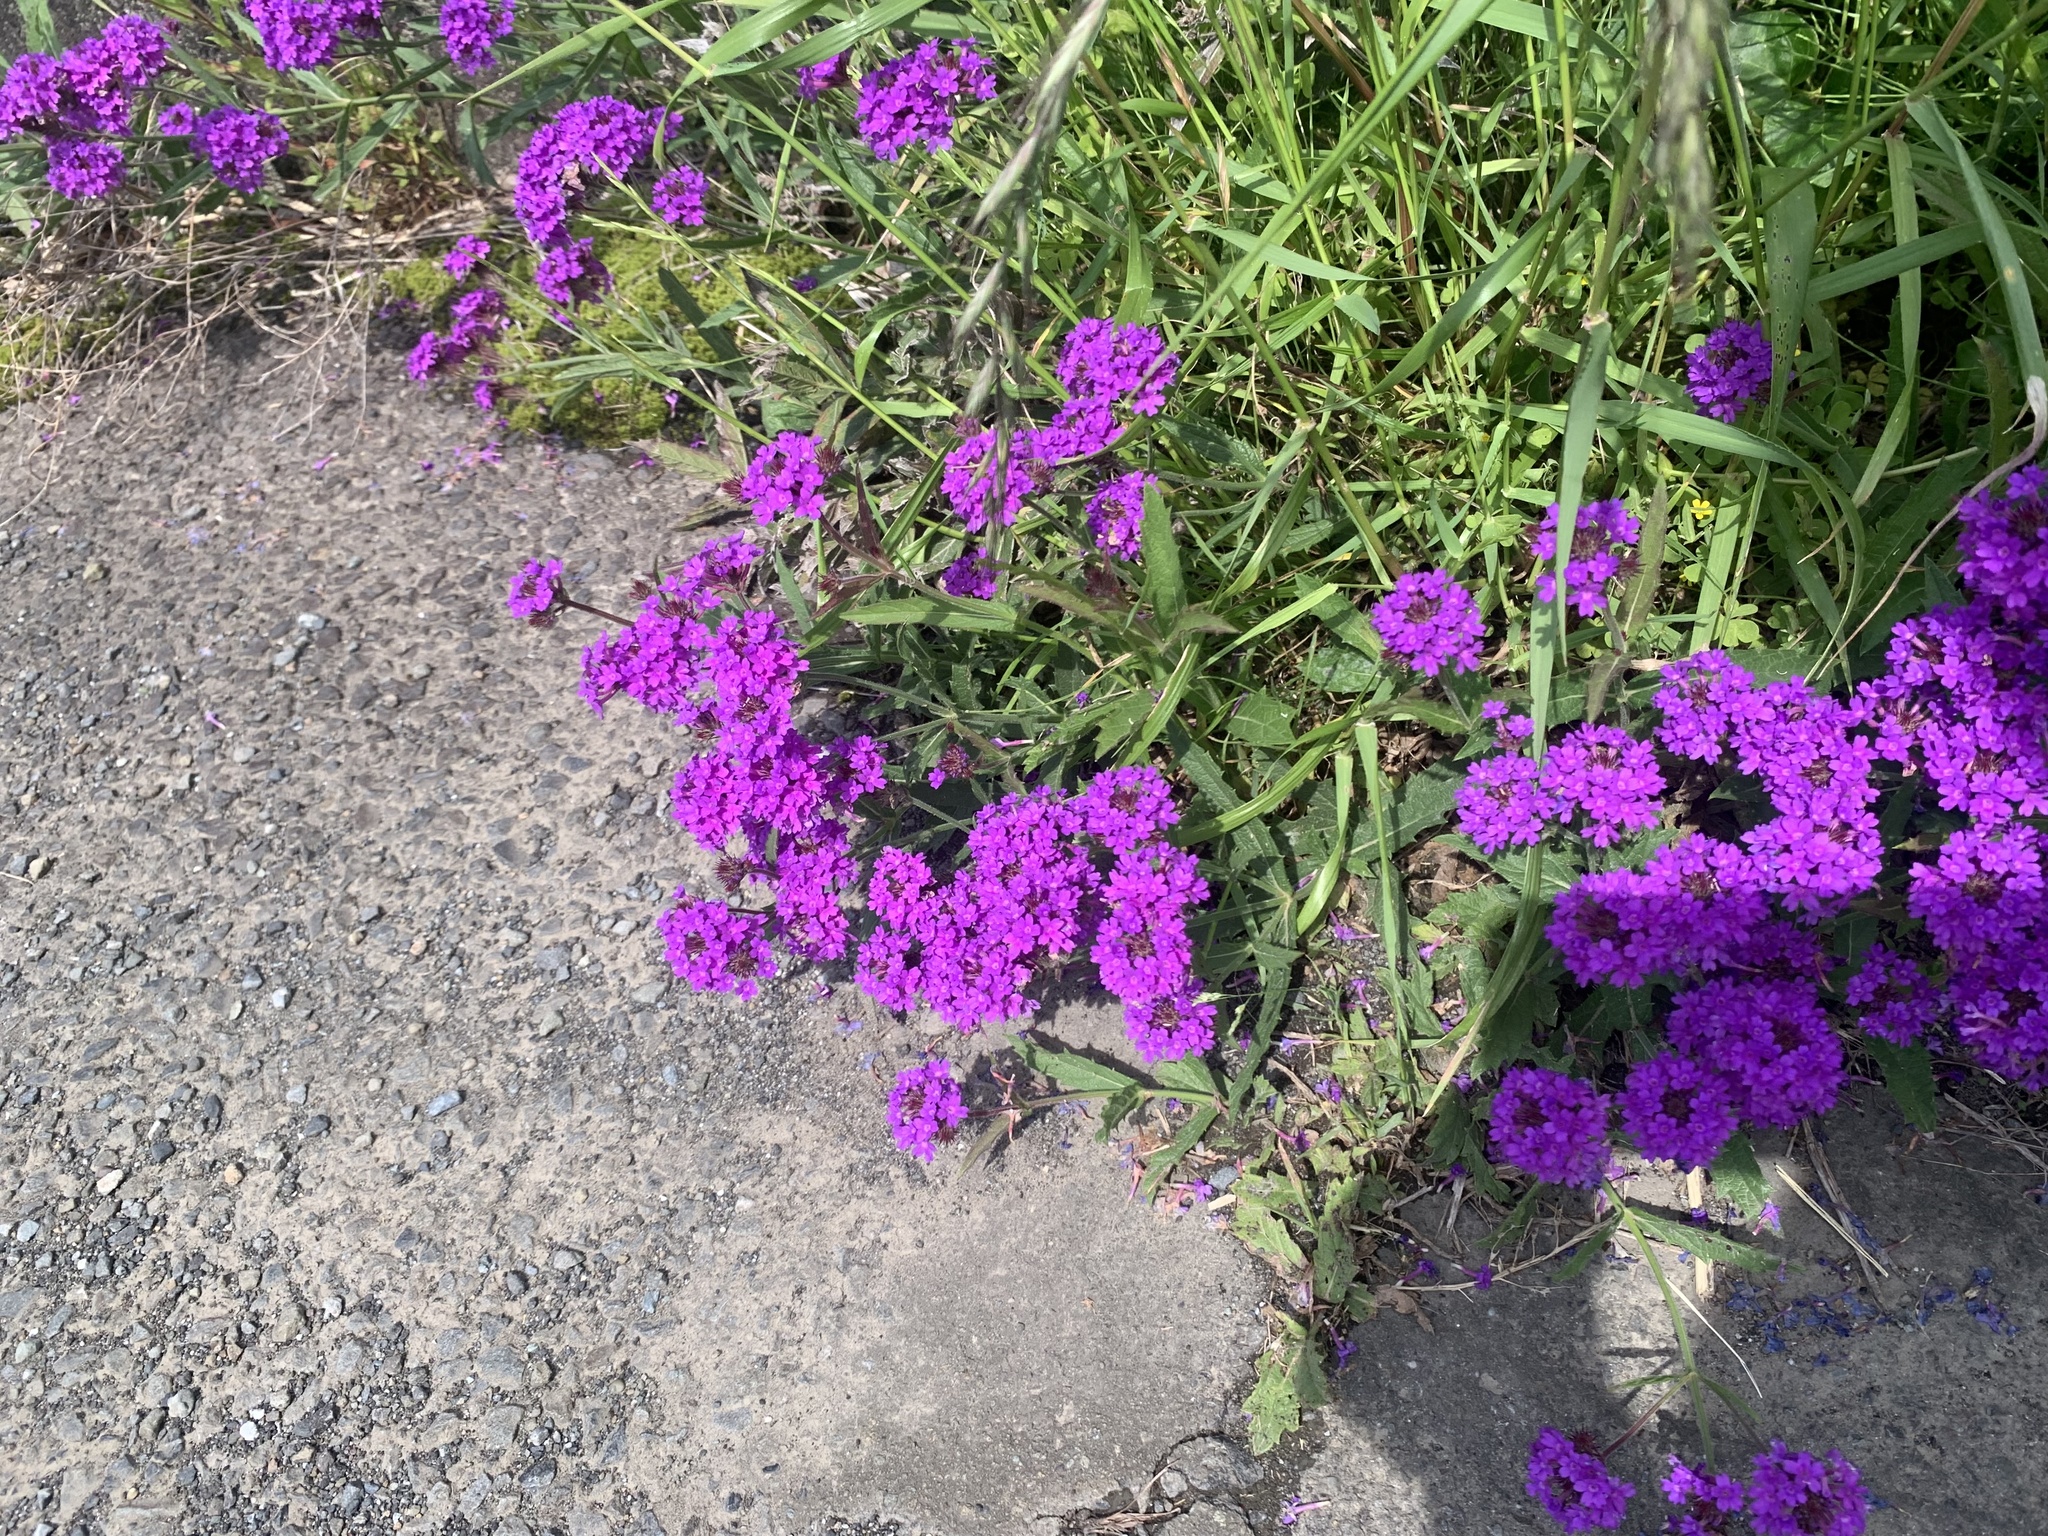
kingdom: Plantae
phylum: Tracheophyta
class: Magnoliopsida
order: Lamiales
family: Verbenaceae
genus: Verbena
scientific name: Verbena rigida
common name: Slender vervain
